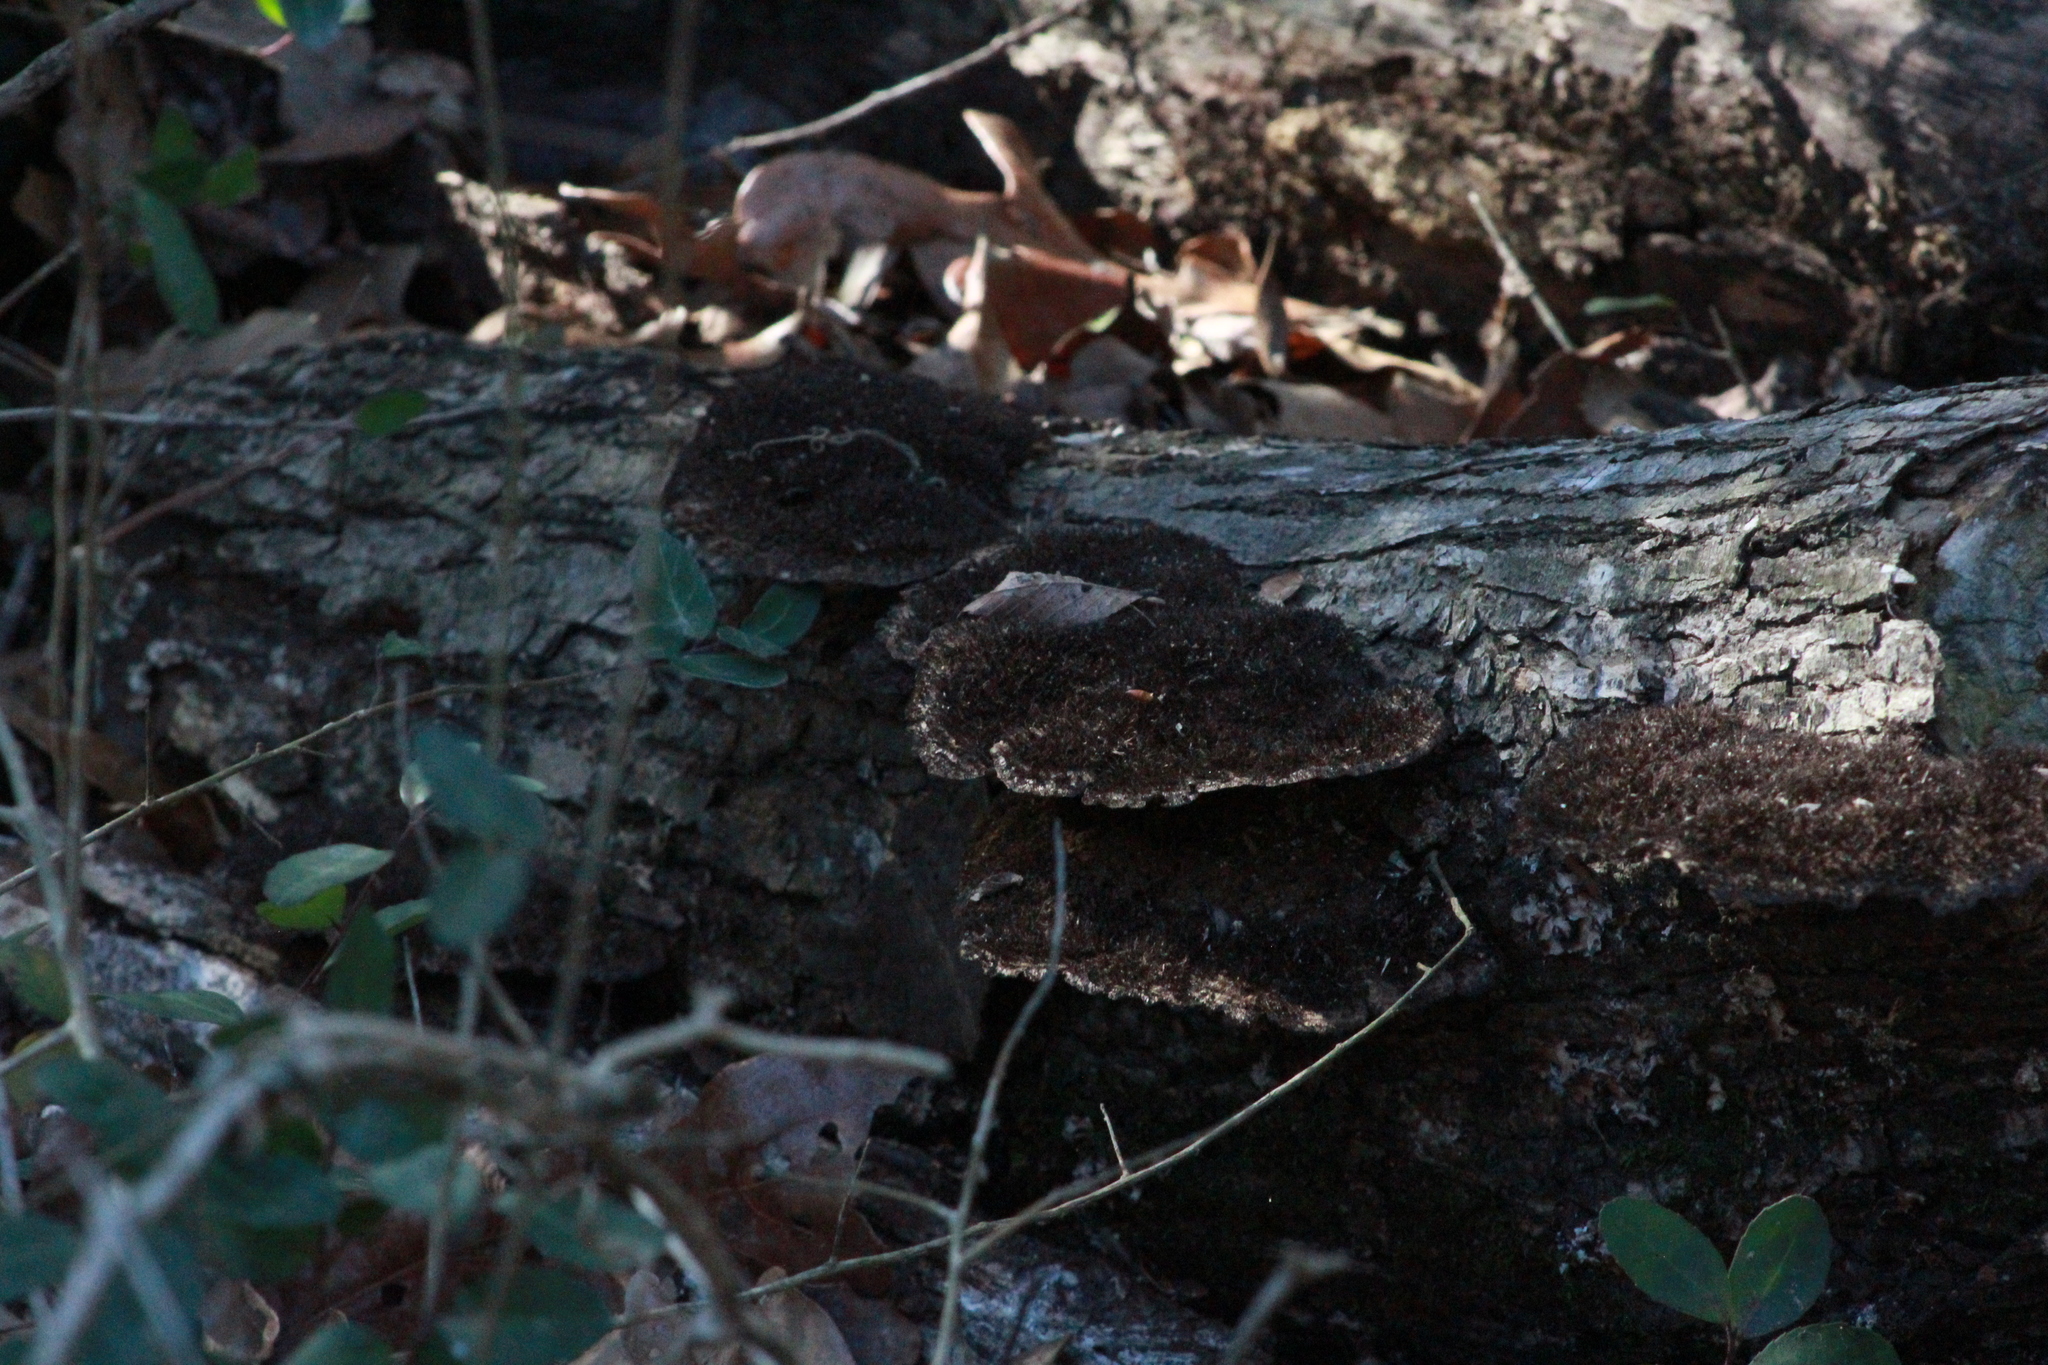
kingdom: Fungi
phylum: Basidiomycota
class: Agaricomycetes
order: Polyporales
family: Cerrenaceae
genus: Cerrena
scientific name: Cerrena hydnoides
